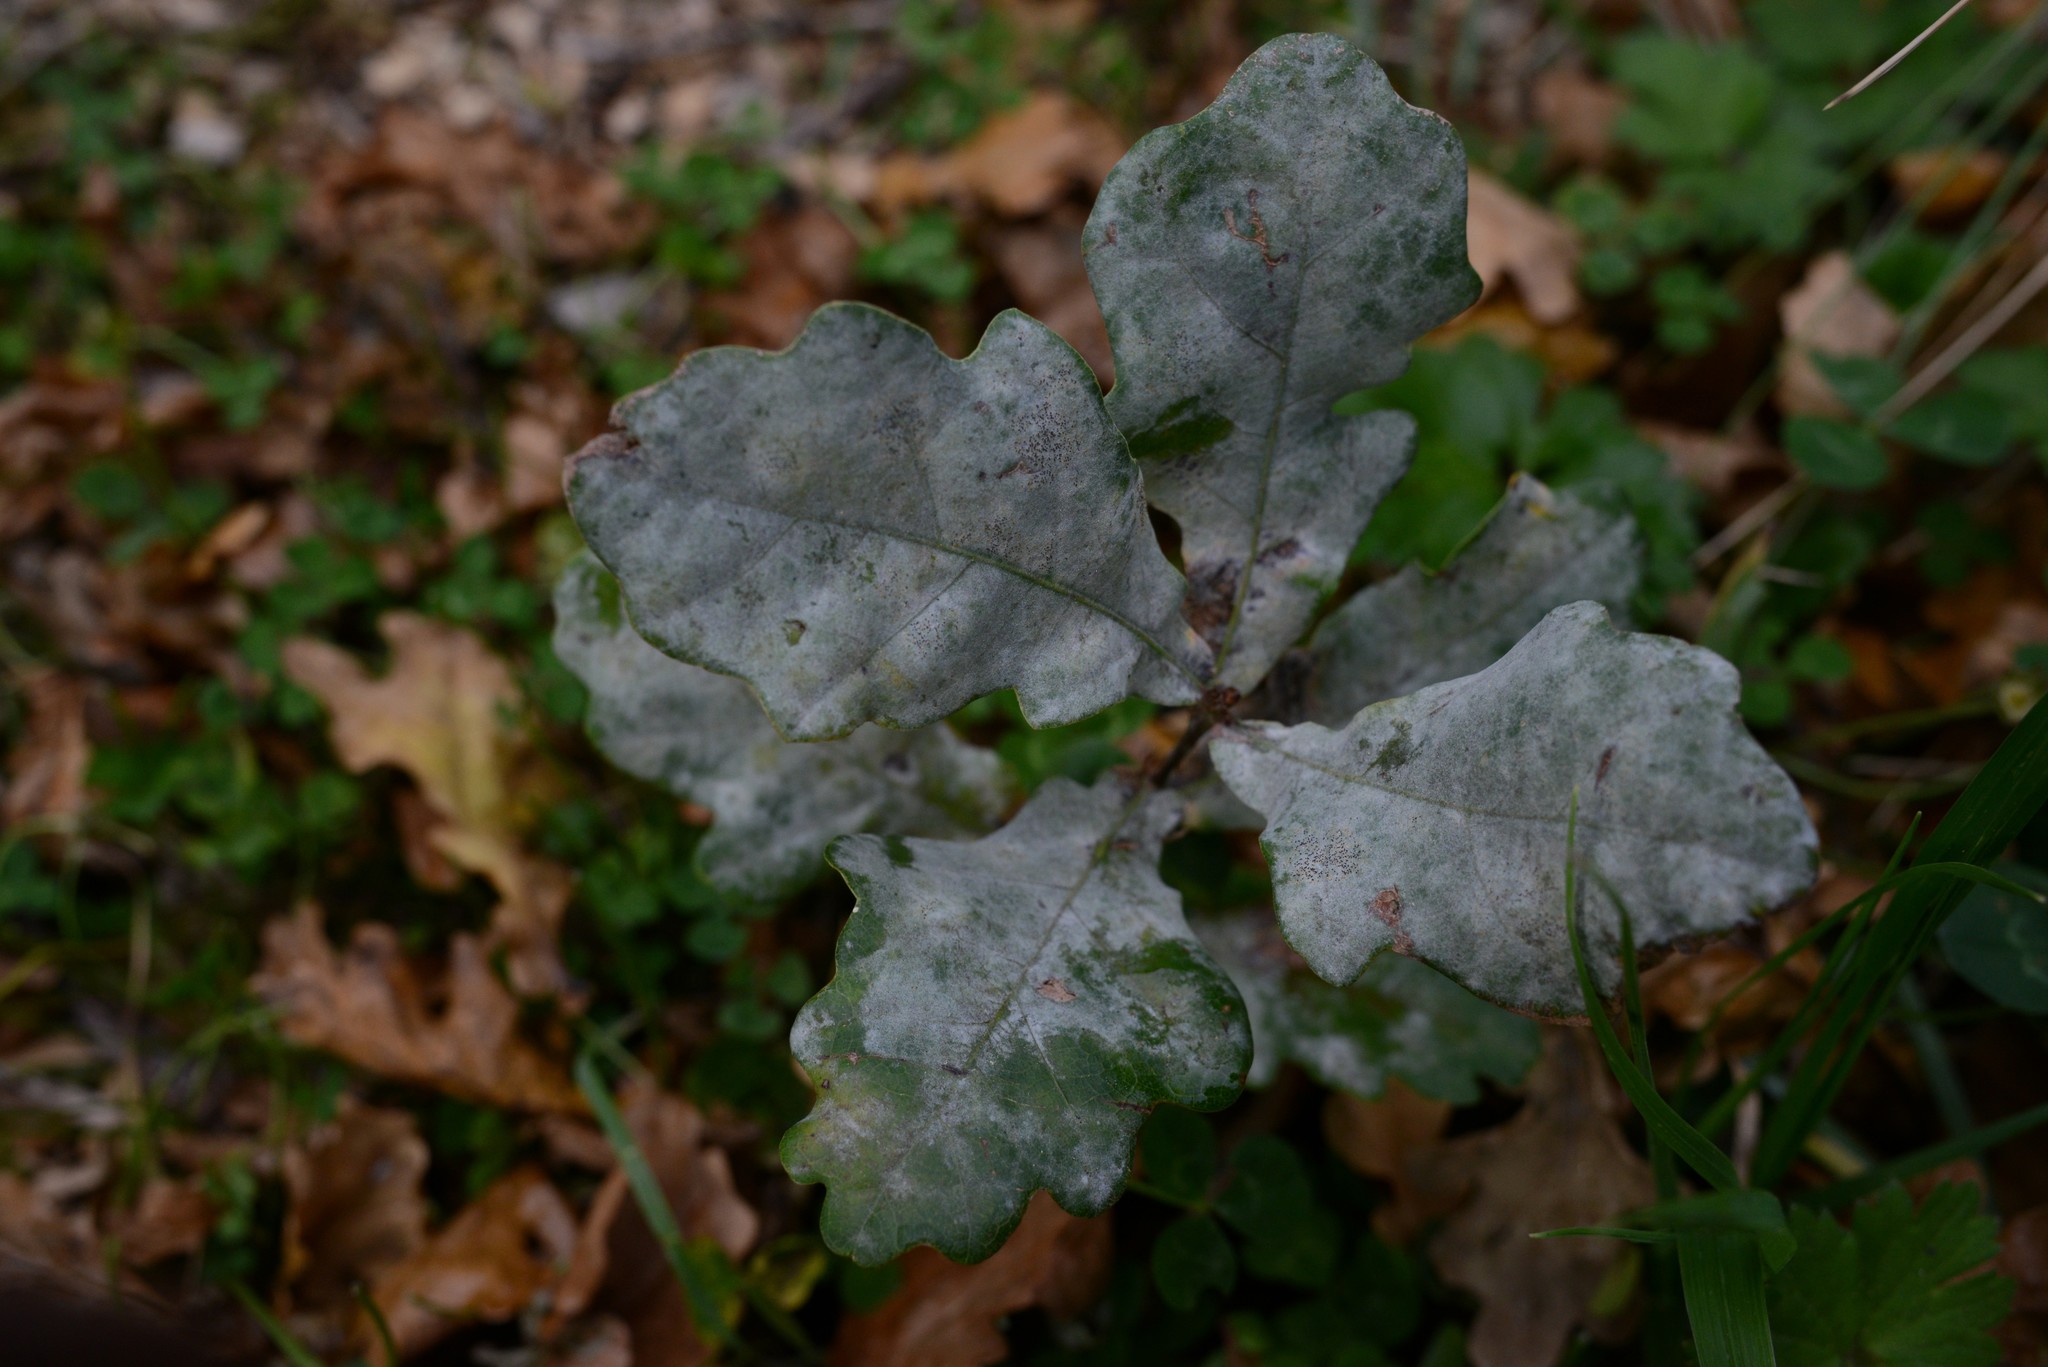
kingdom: Plantae
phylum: Tracheophyta
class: Magnoliopsida
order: Fagales
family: Fagaceae
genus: Quercus
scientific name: Quercus robur
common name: Pedunculate oak
